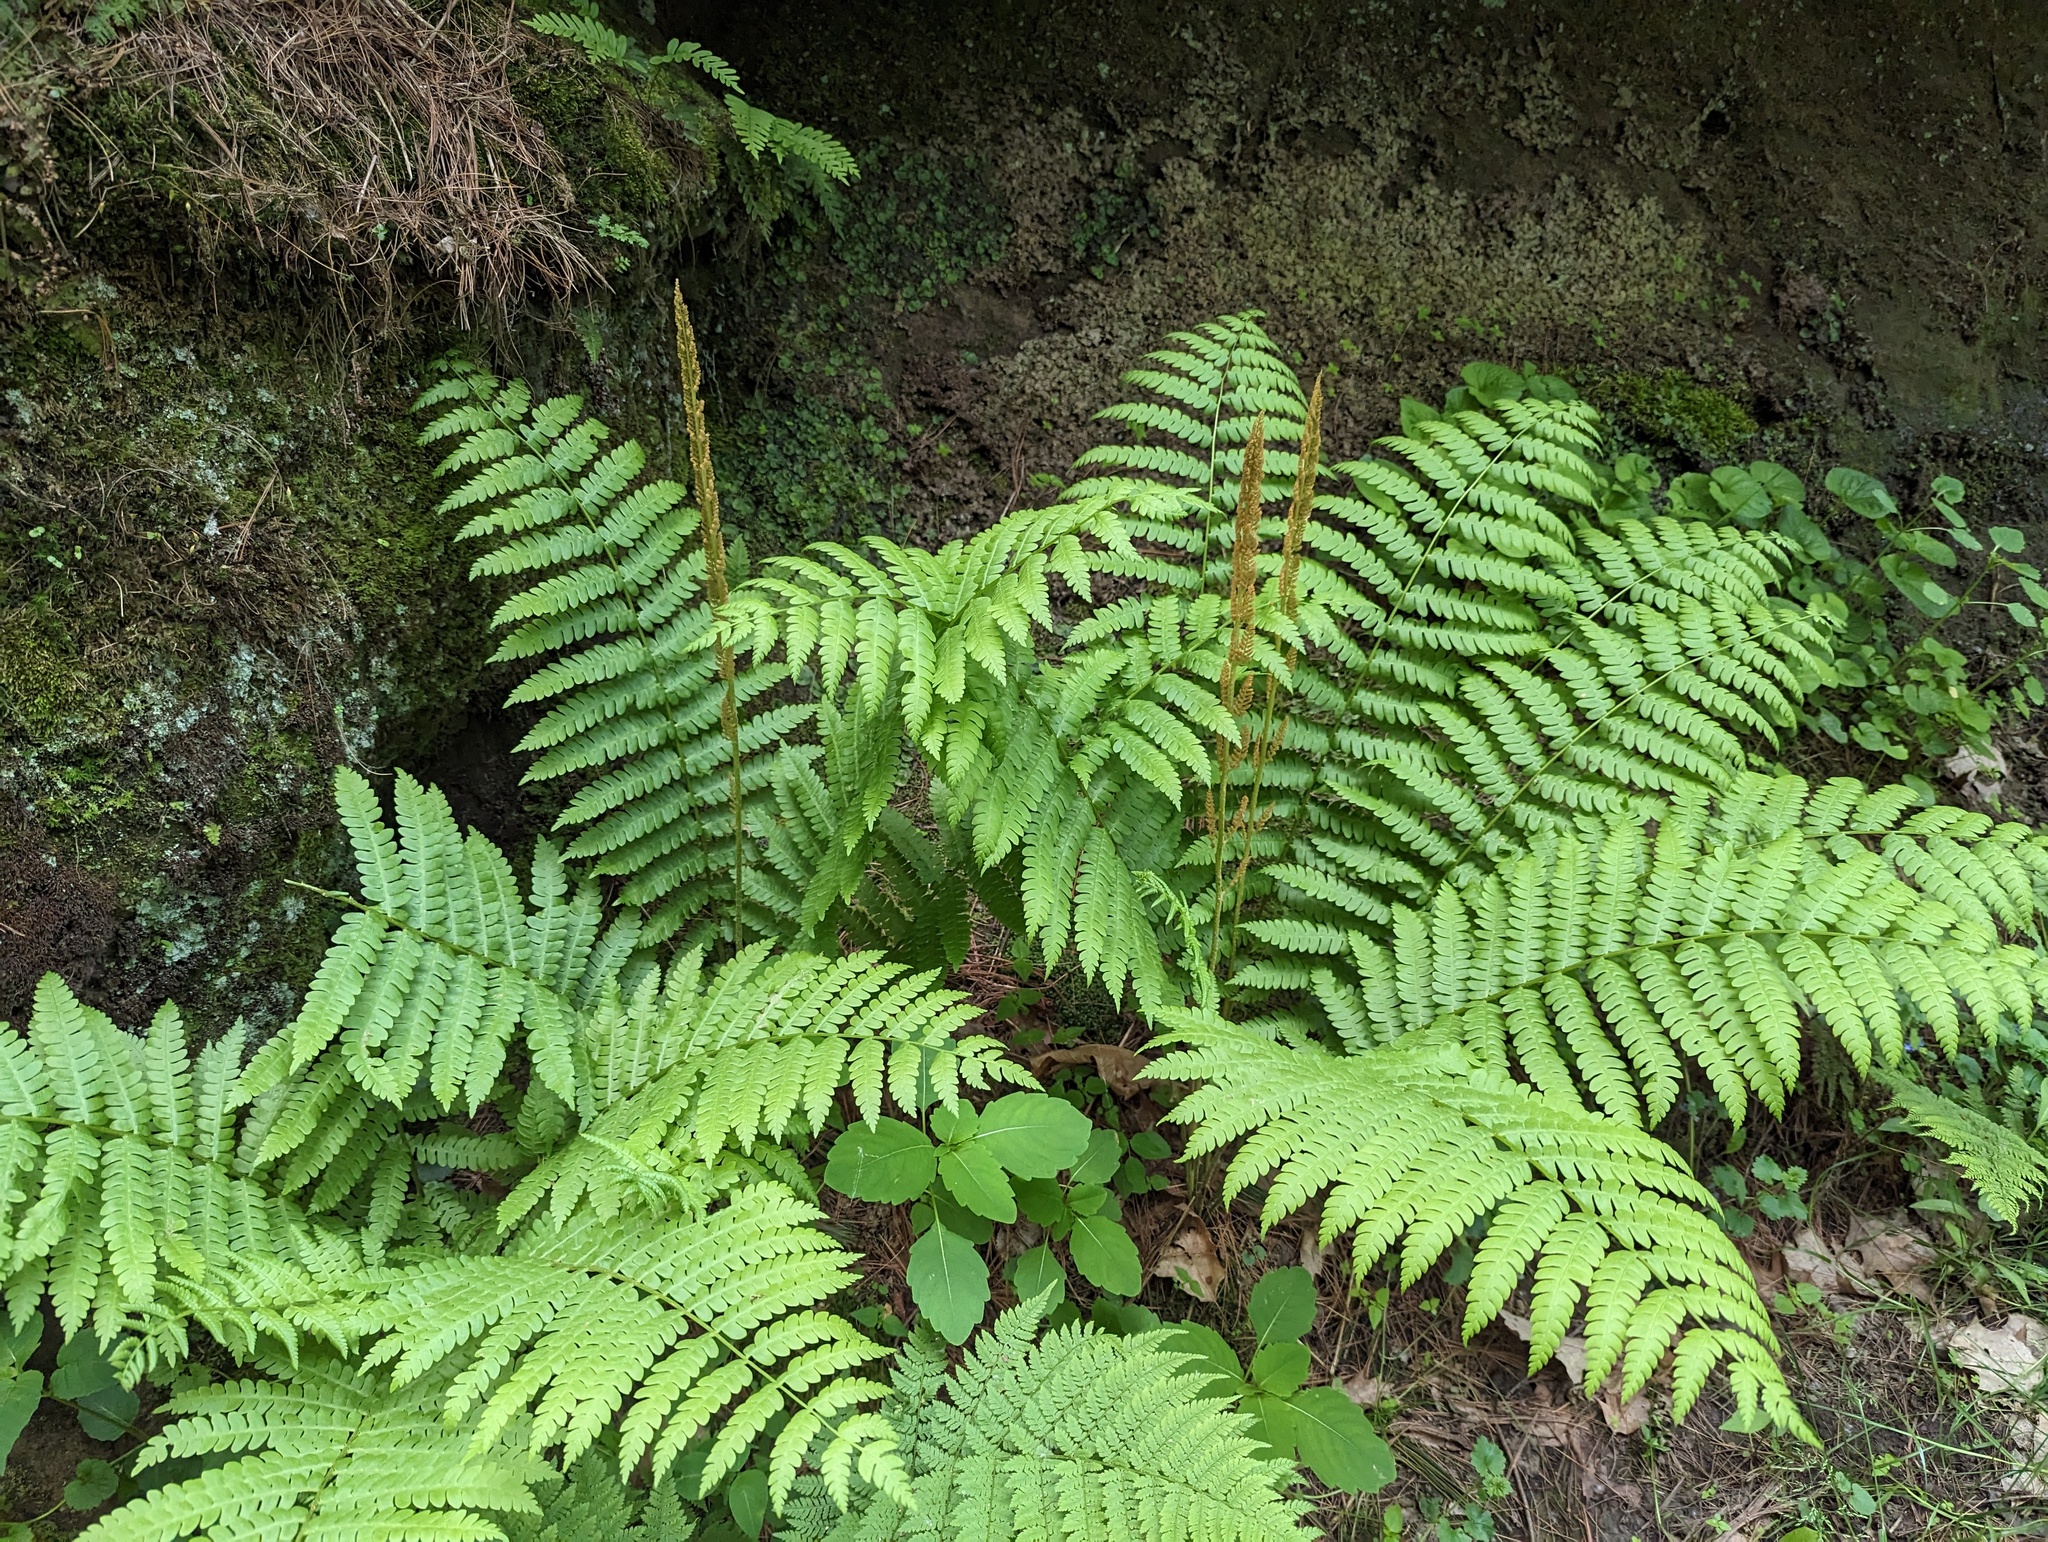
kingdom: Plantae
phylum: Tracheophyta
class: Polypodiopsida
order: Osmundales
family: Osmundaceae
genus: Osmundastrum
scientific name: Osmundastrum cinnamomeum
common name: Cinnamon fern
